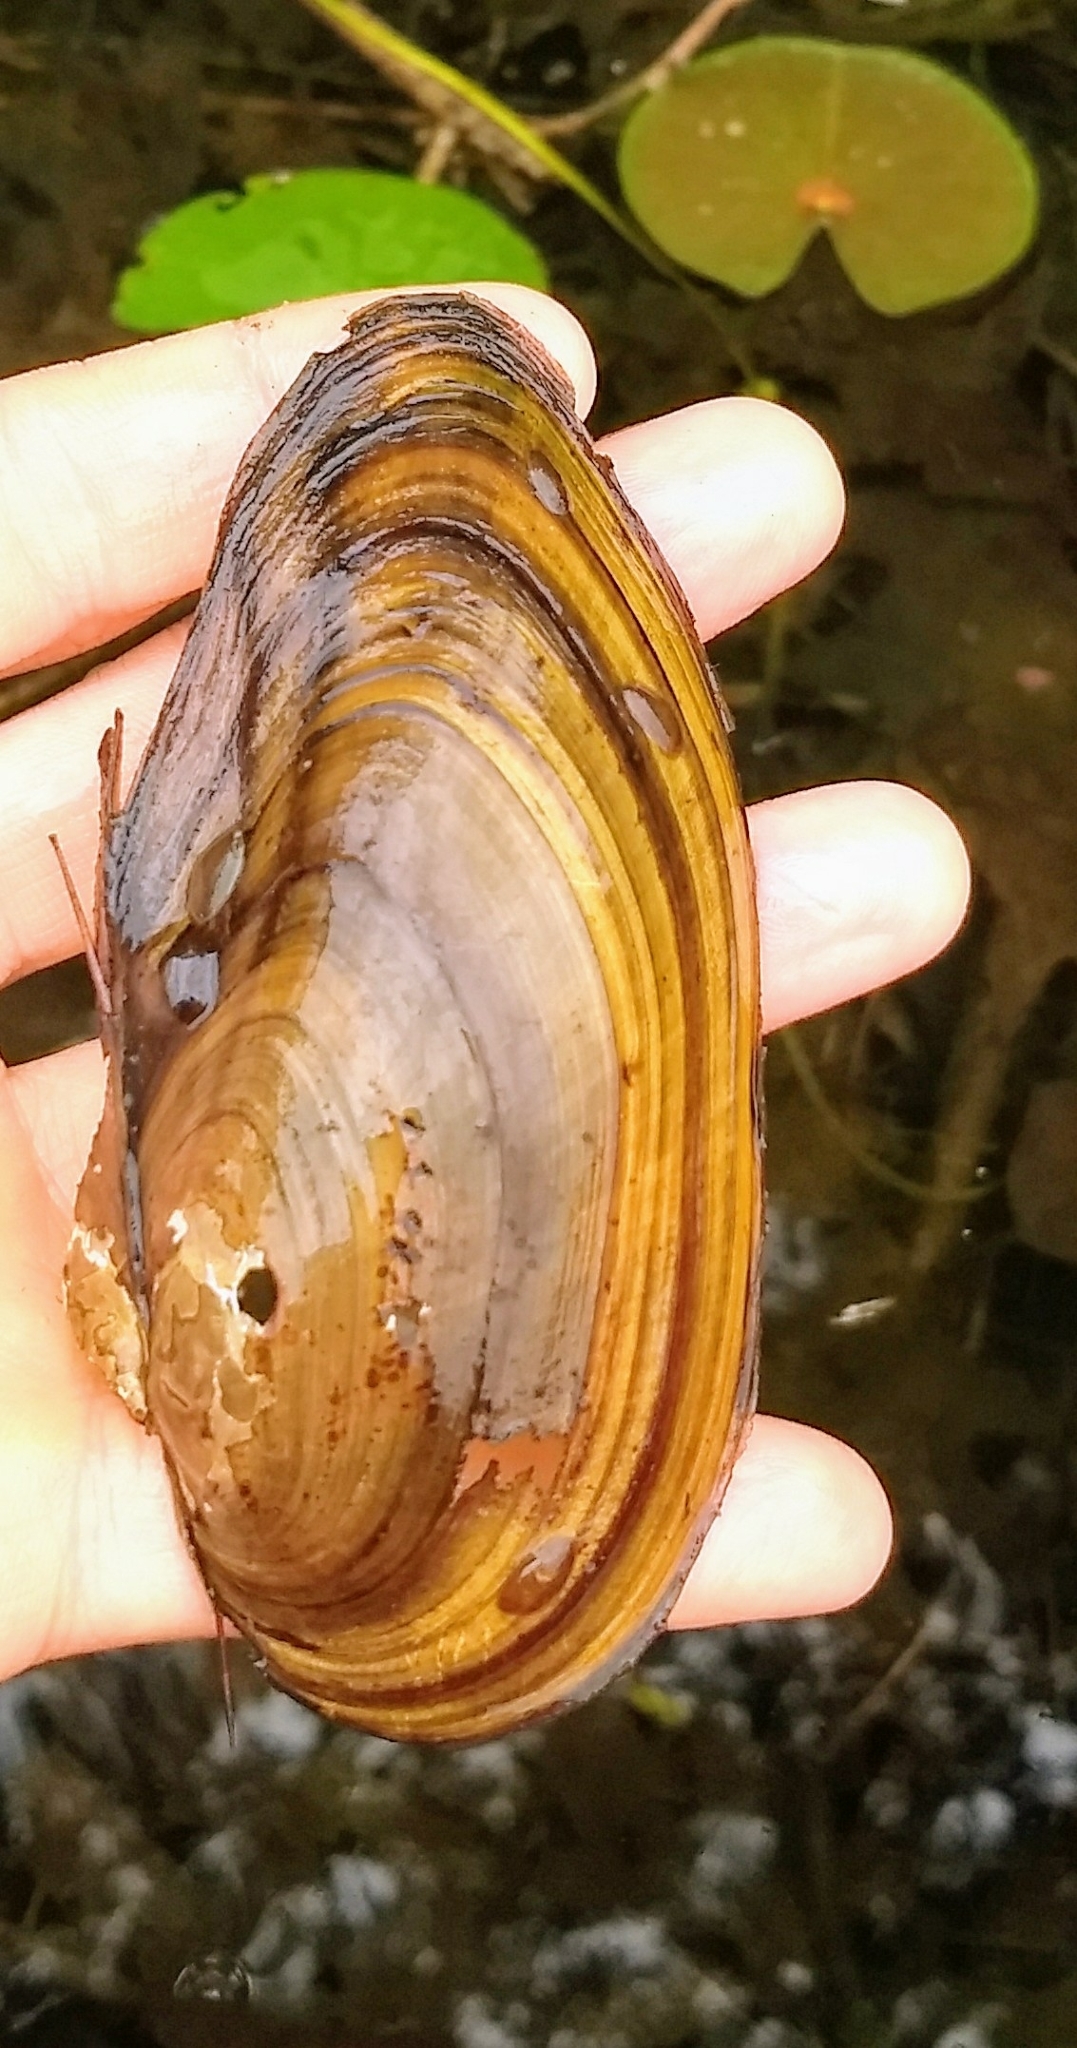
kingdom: Animalia
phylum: Mollusca
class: Bivalvia
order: Unionida
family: Unionidae
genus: Pyganodon
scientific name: Pyganodon cataracta
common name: Eastern floater
